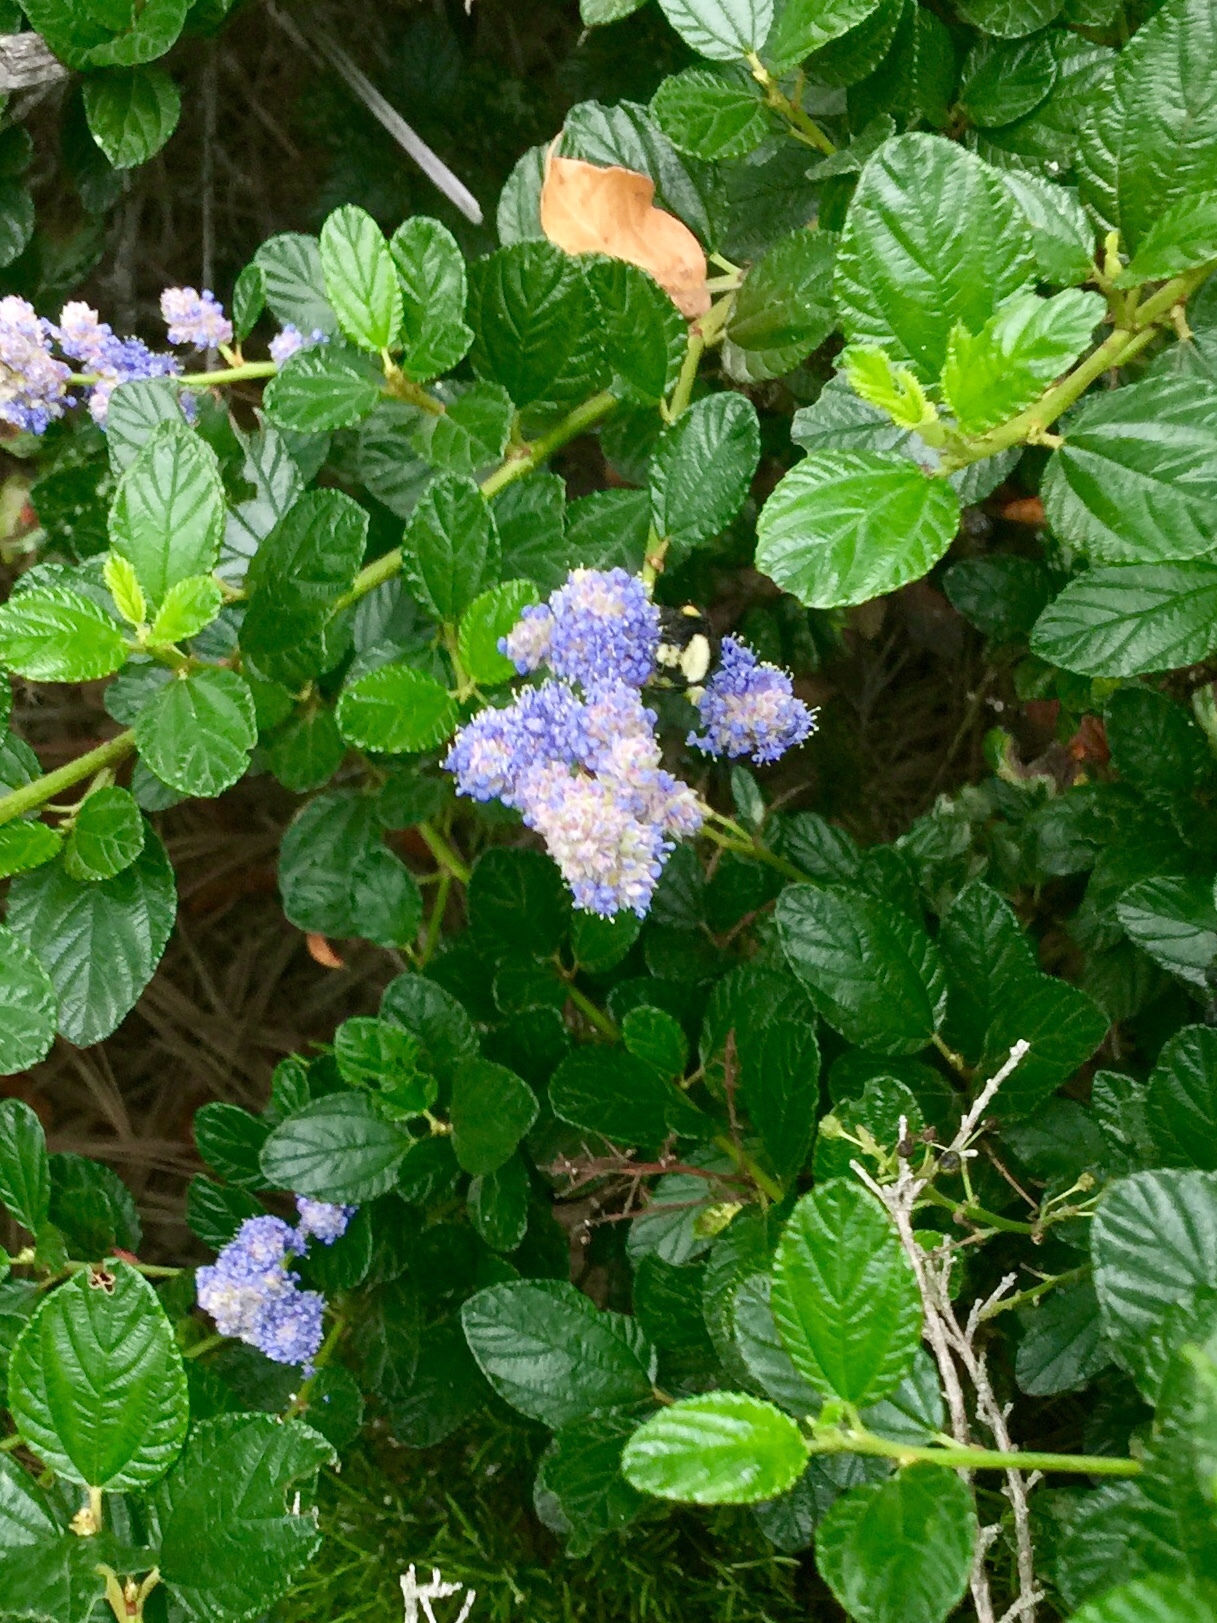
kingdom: Animalia
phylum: Arthropoda
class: Insecta
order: Hymenoptera
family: Apidae
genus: Bombus
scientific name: Bombus vosnesenskii
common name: Vosnesensky bumble bee
